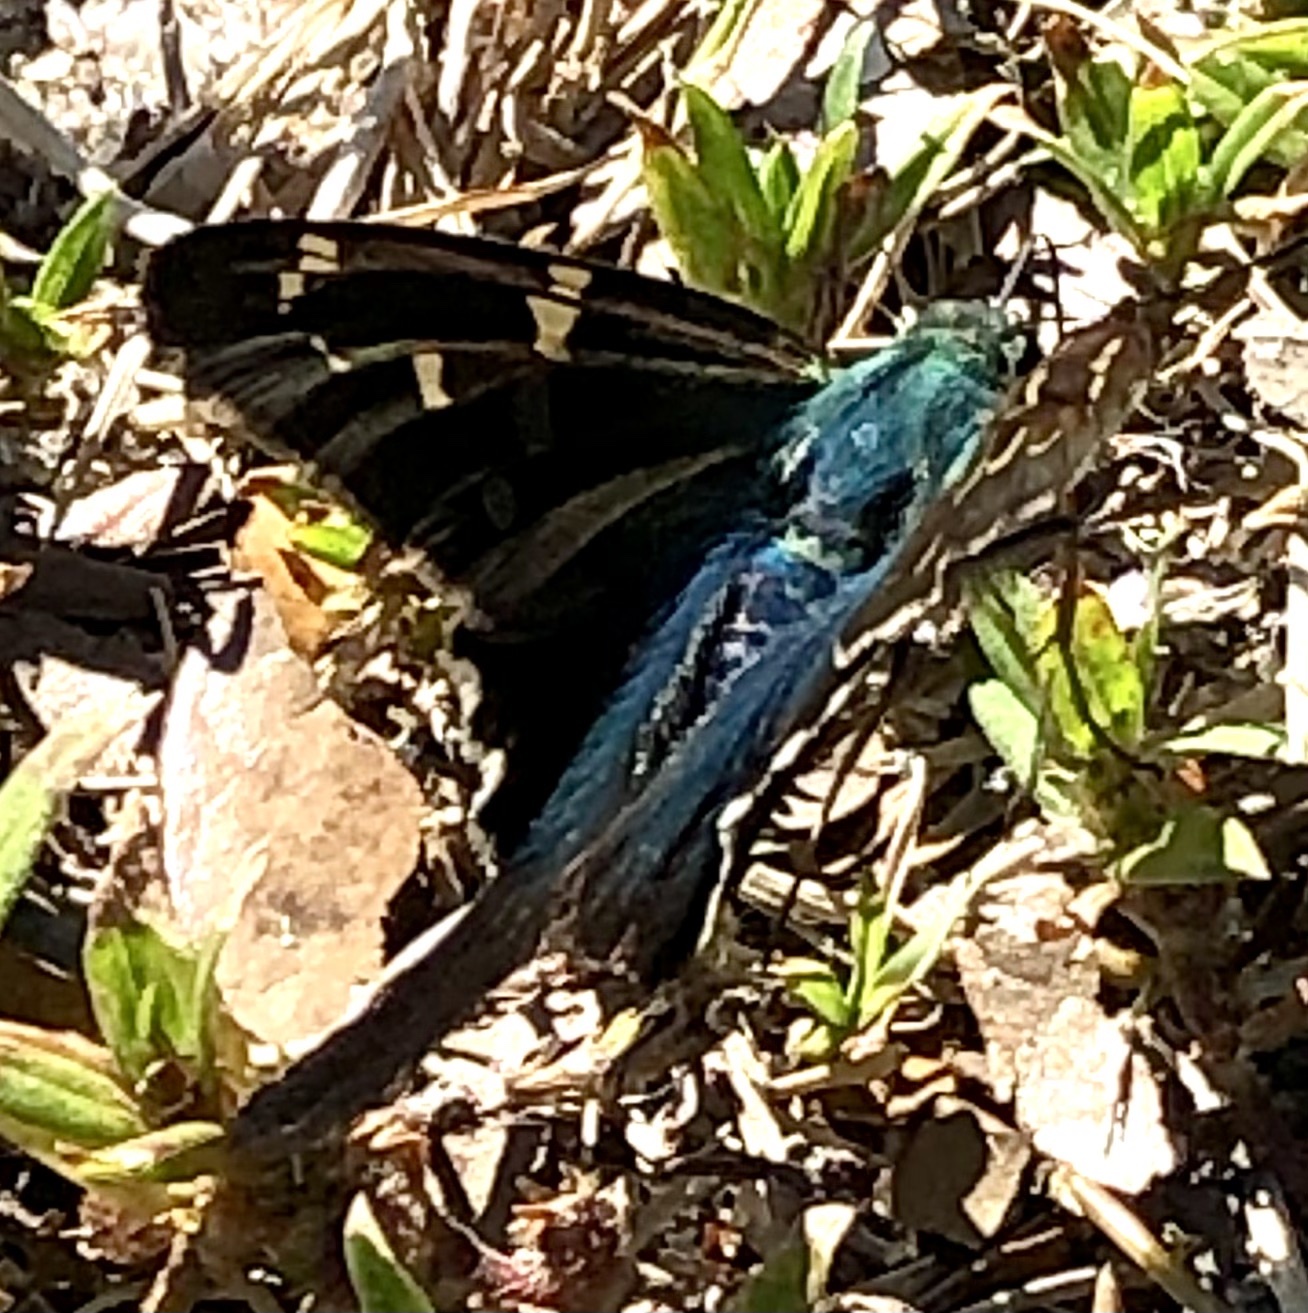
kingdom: Animalia
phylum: Arthropoda
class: Insecta
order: Lepidoptera
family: Hesperiidae
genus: Urbanus
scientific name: Urbanus proteus
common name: Long-tailed skipper
